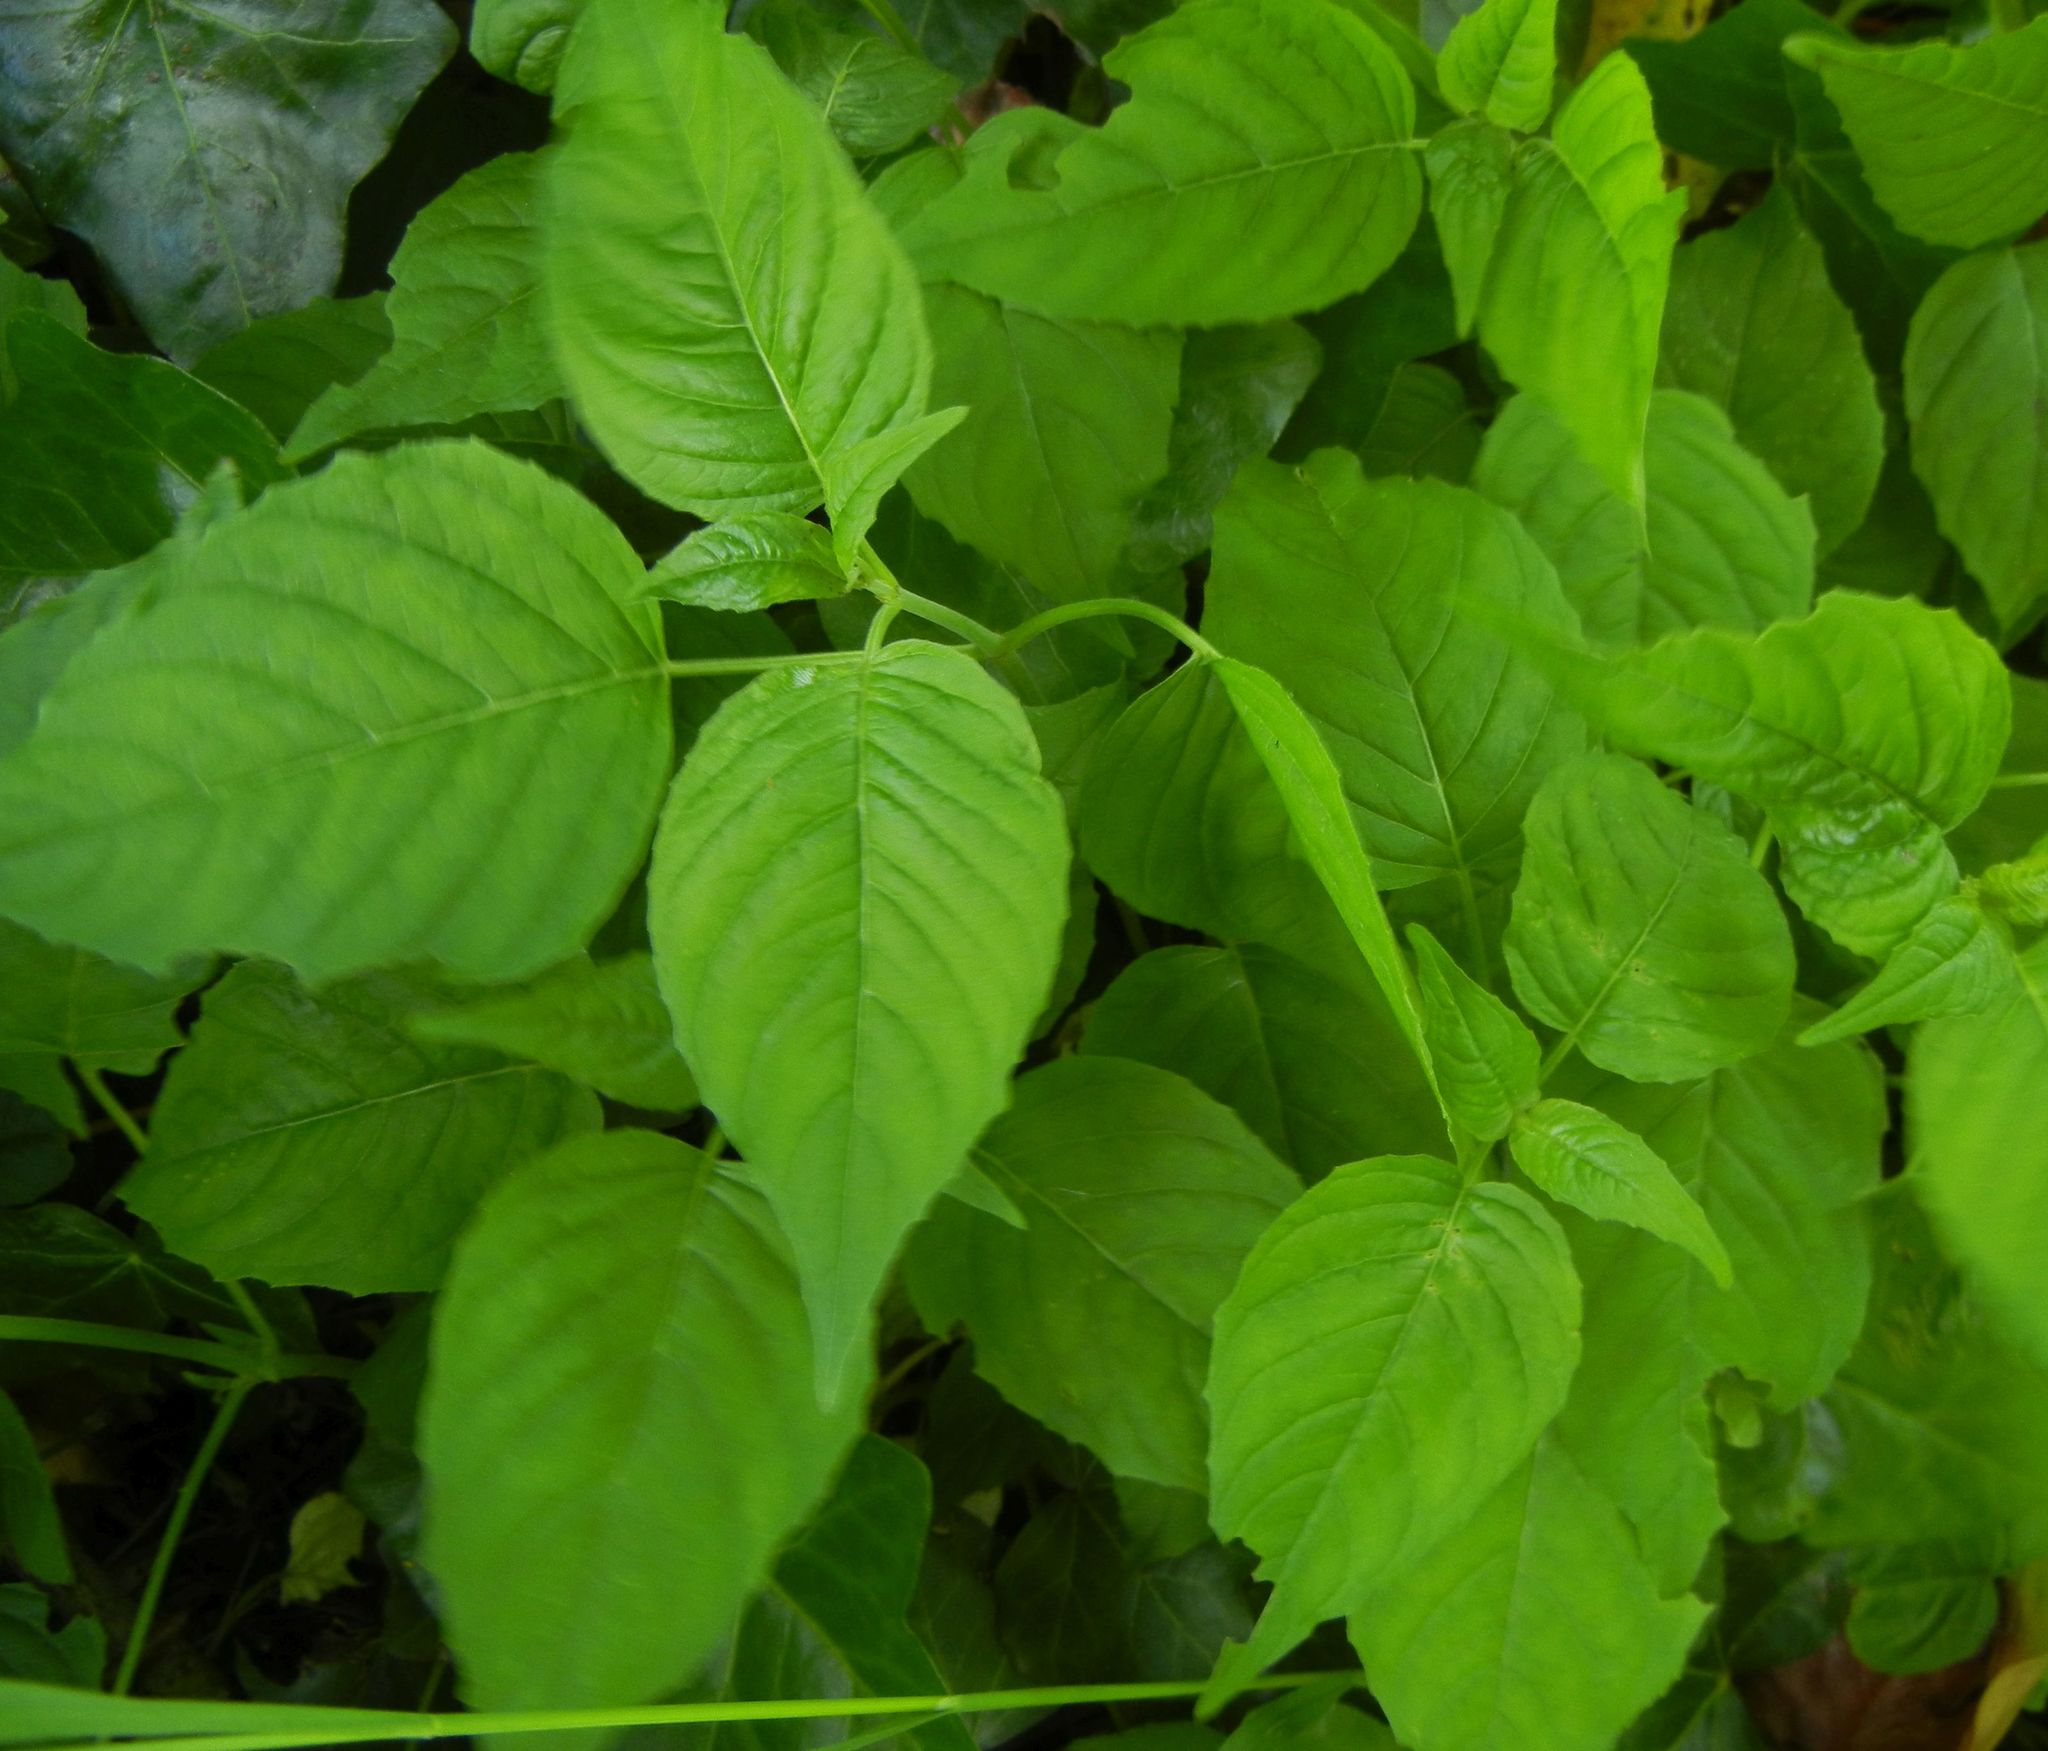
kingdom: Plantae
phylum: Tracheophyta
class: Magnoliopsida
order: Myrtales
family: Onagraceae
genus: Circaea
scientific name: Circaea lutetiana
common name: Enchanter's-nightshade
